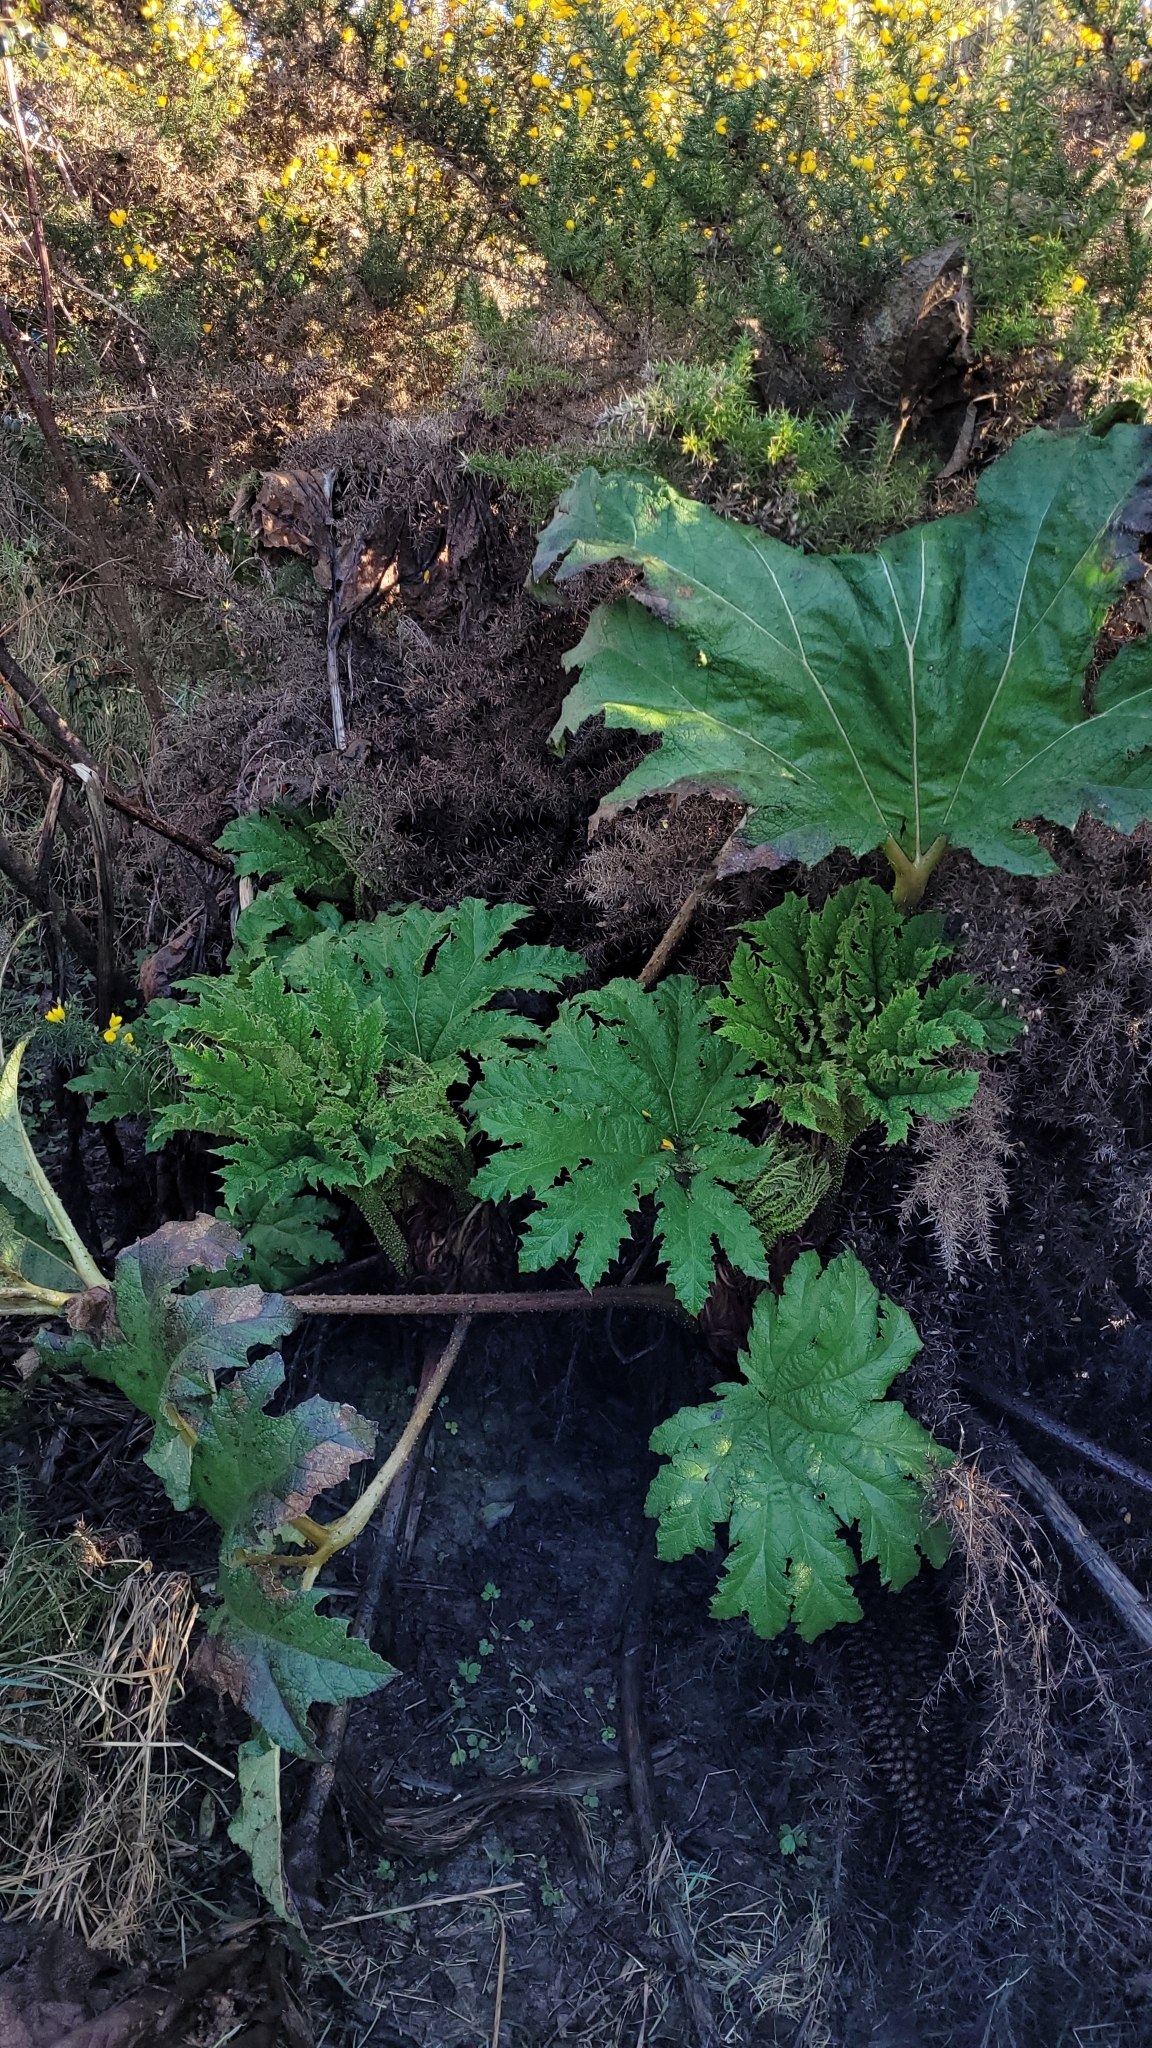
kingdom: Plantae
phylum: Tracheophyta
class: Magnoliopsida
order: Gunnerales
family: Gunneraceae
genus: Gunnera
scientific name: Gunnera tinctoria
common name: Giant-rhubarb
